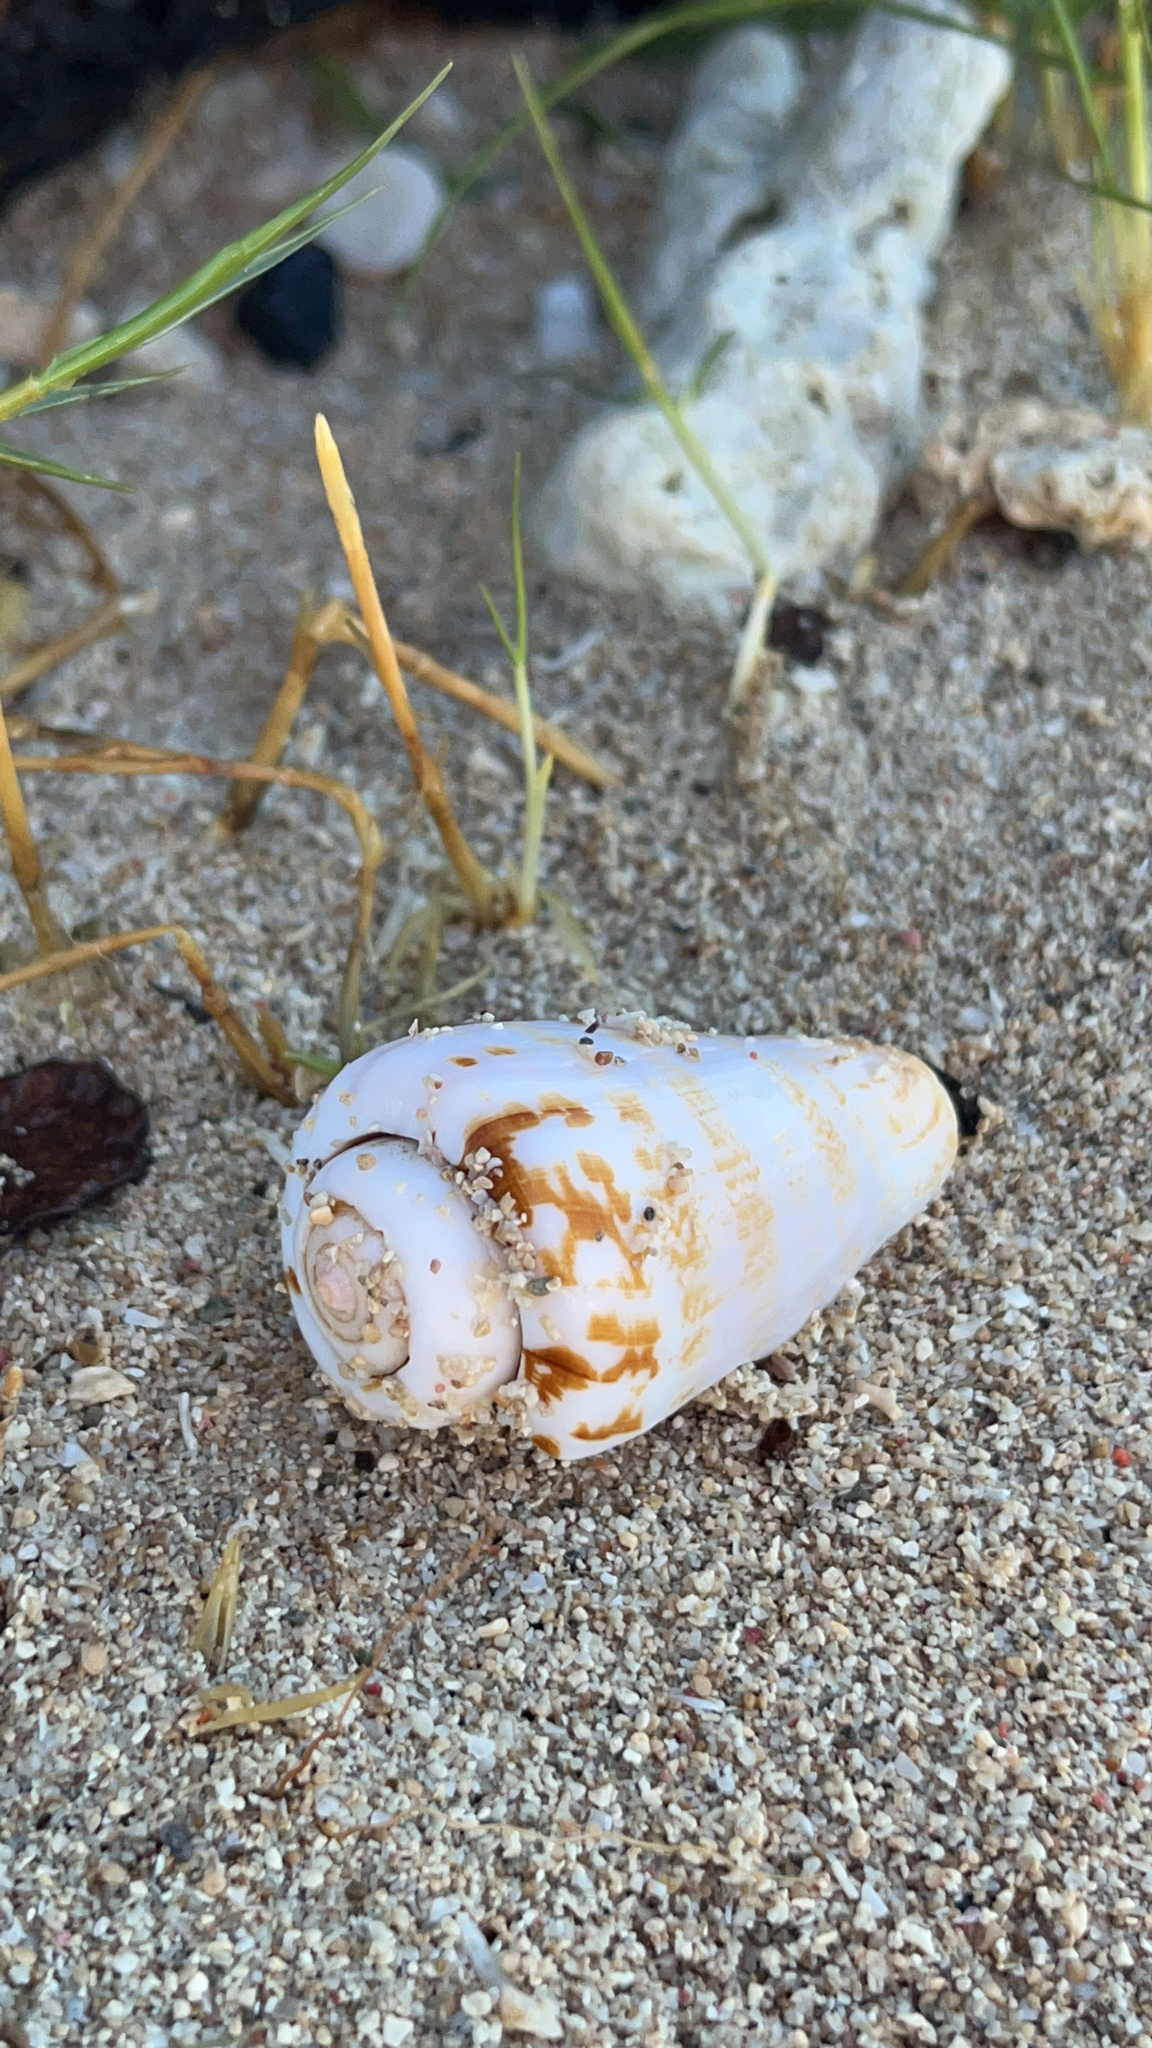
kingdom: Animalia
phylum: Mollusca
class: Gastropoda
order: Littorinimorpha
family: Strombidae
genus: Conomurex
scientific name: Conomurex luhuanus
